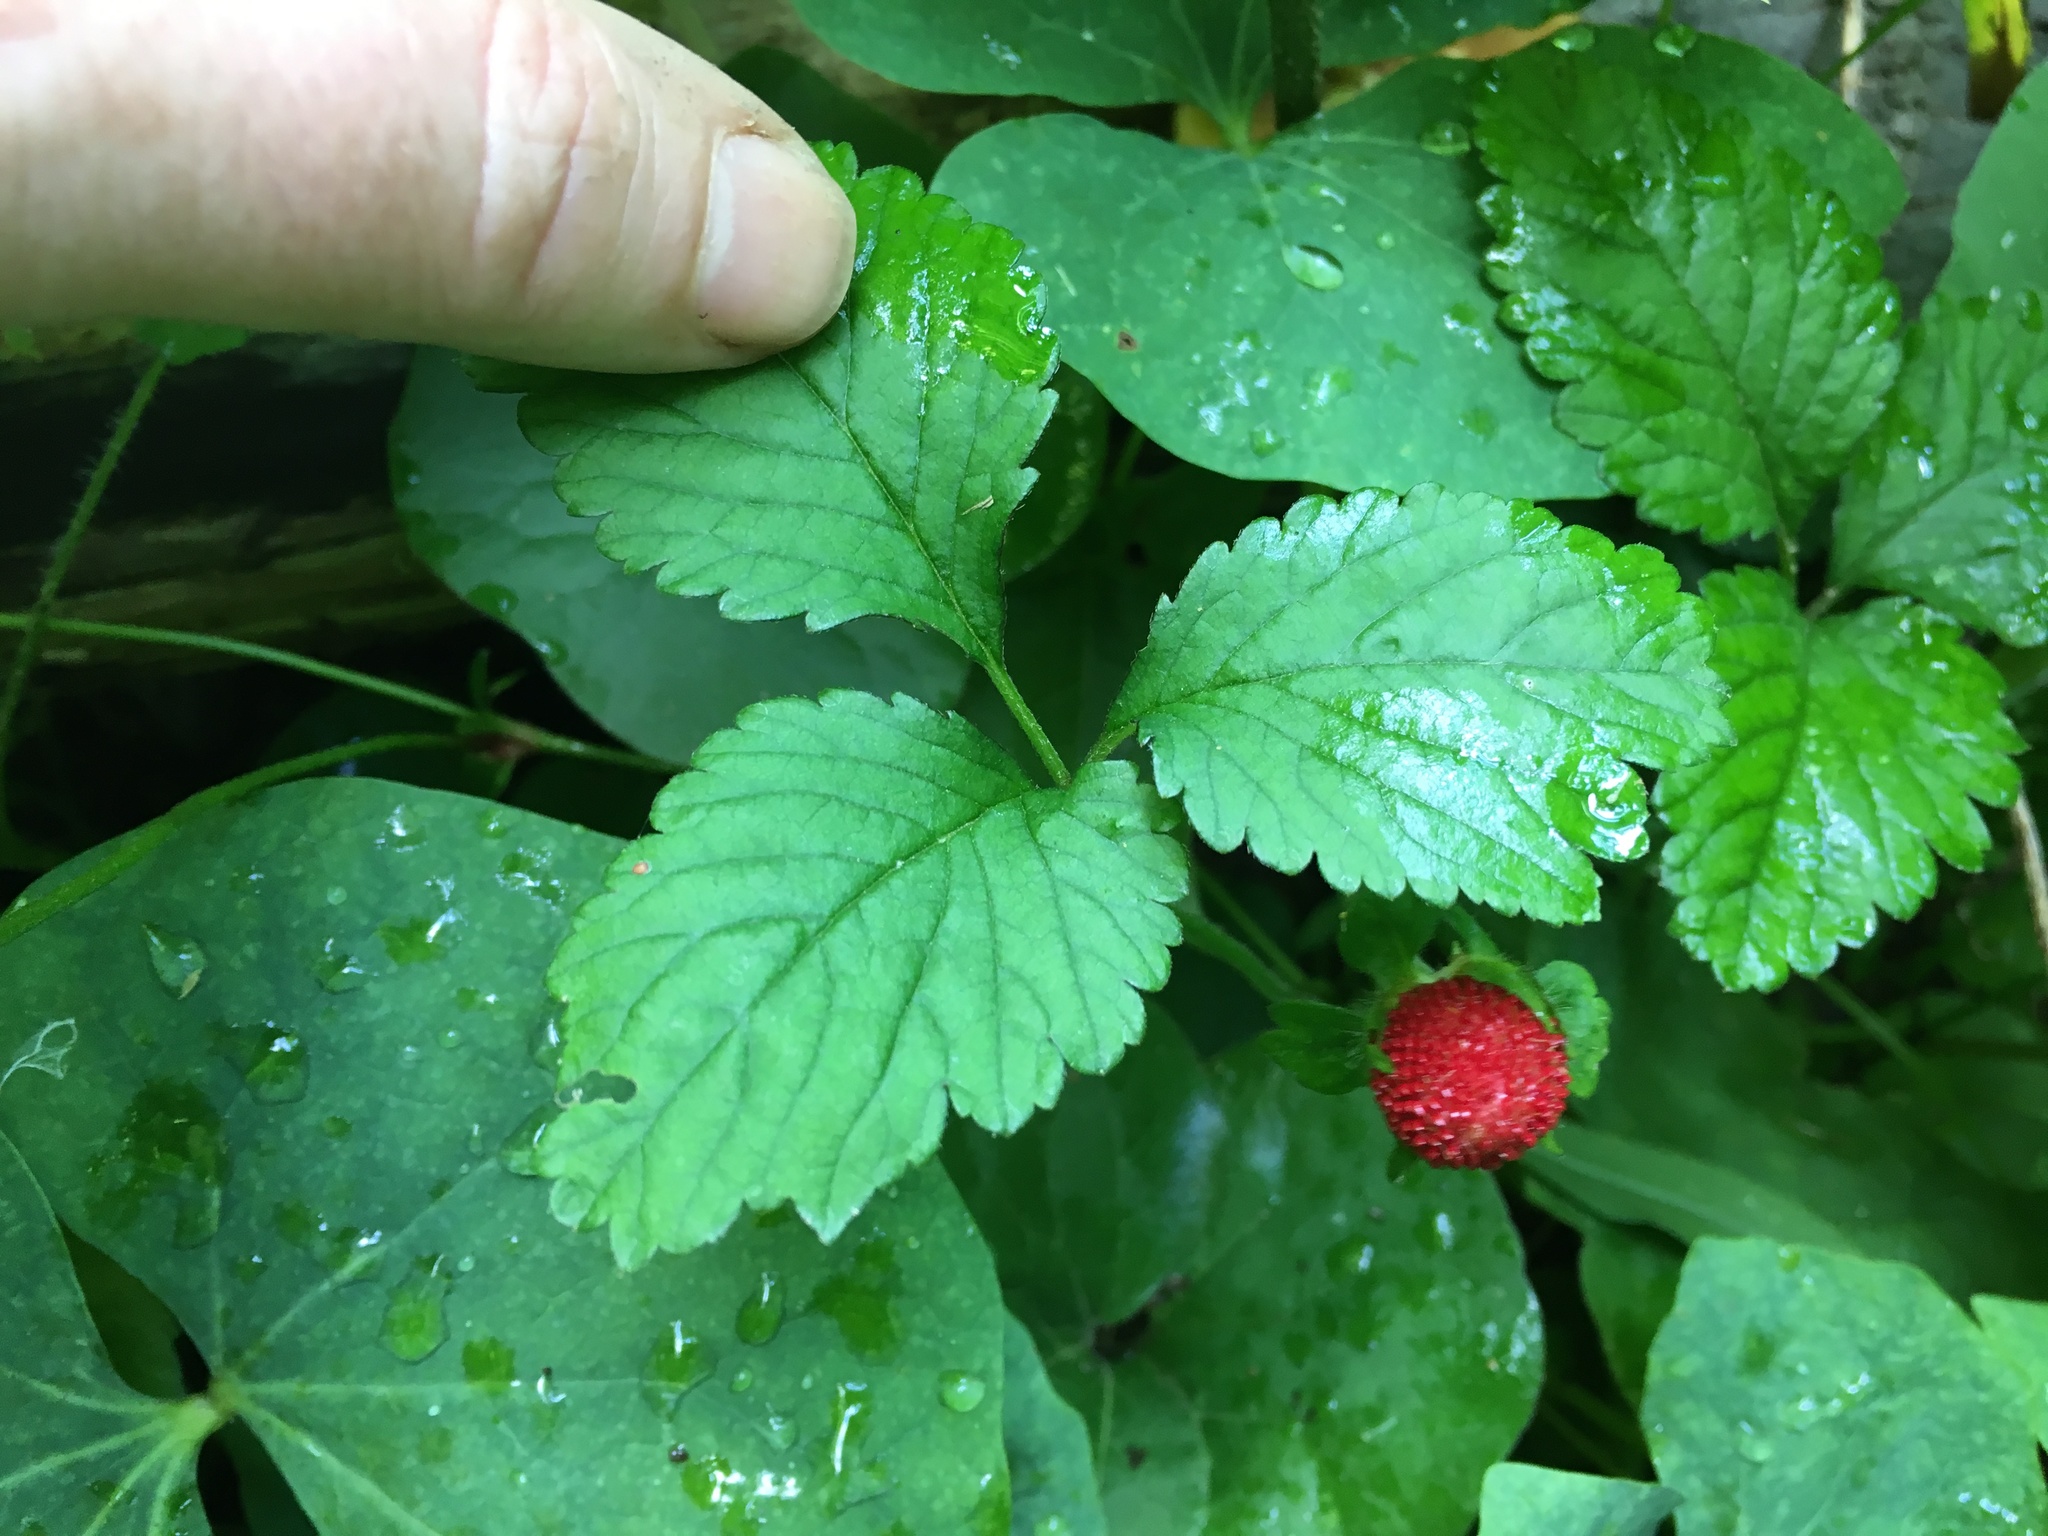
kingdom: Plantae
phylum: Tracheophyta
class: Magnoliopsida
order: Rosales
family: Rosaceae
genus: Potentilla
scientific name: Potentilla indica
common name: Yellow-flowered strawberry
